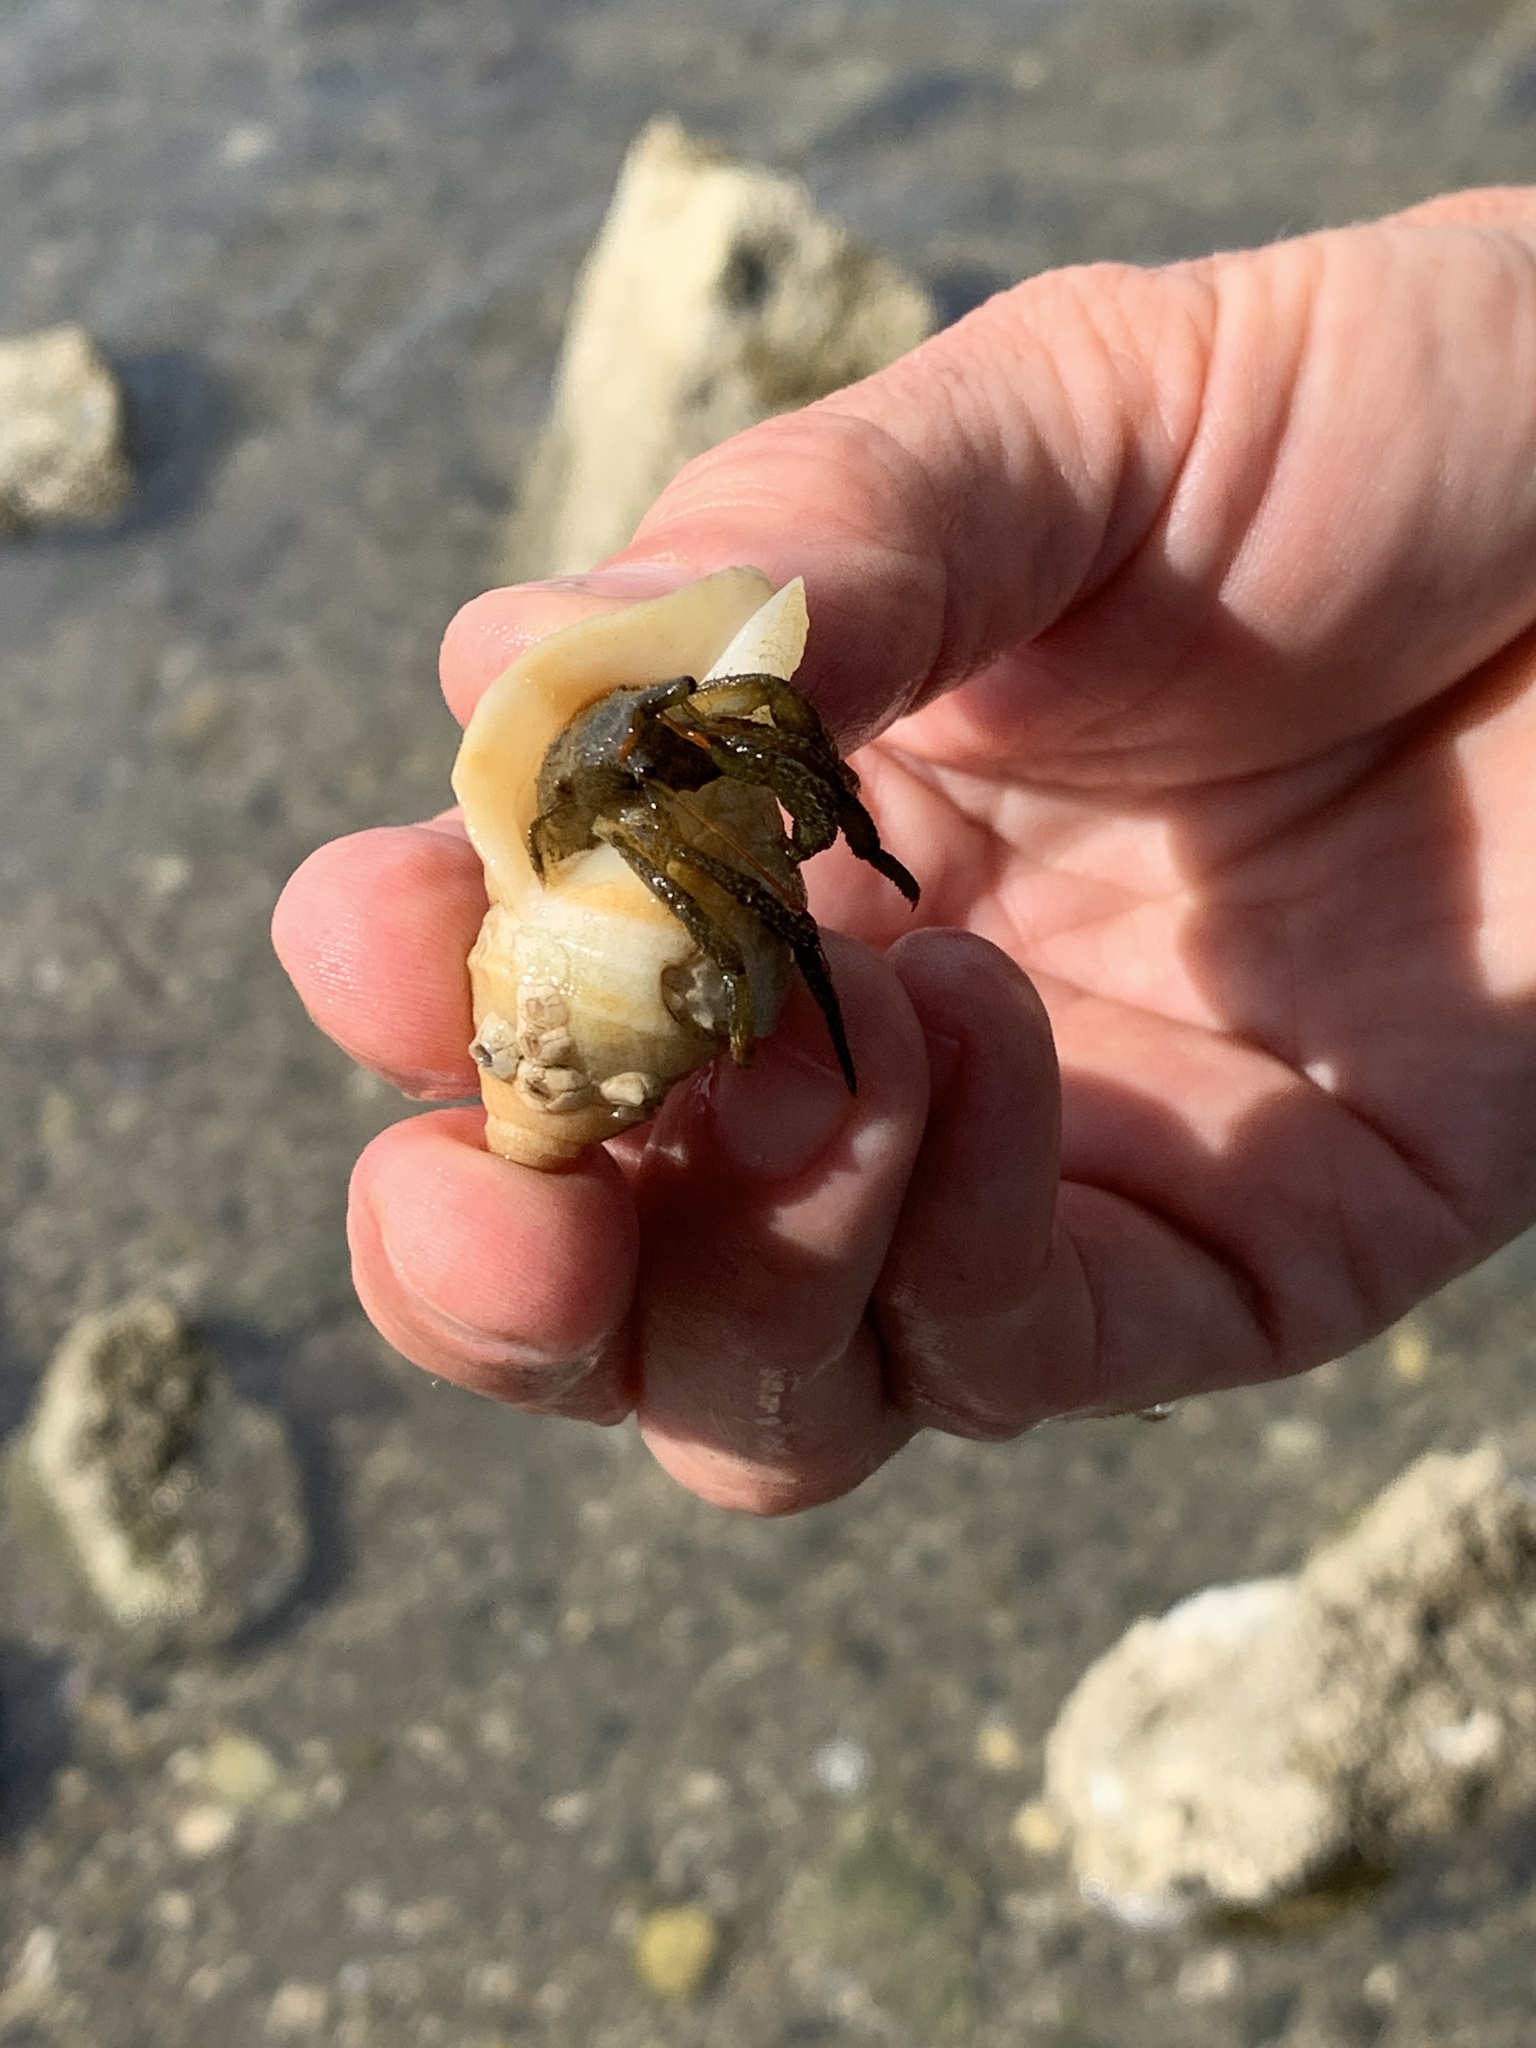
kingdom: Animalia
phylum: Arthropoda
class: Malacostraca
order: Decapoda
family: Paguridae
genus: Pagurus
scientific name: Pagurus granosimanus
